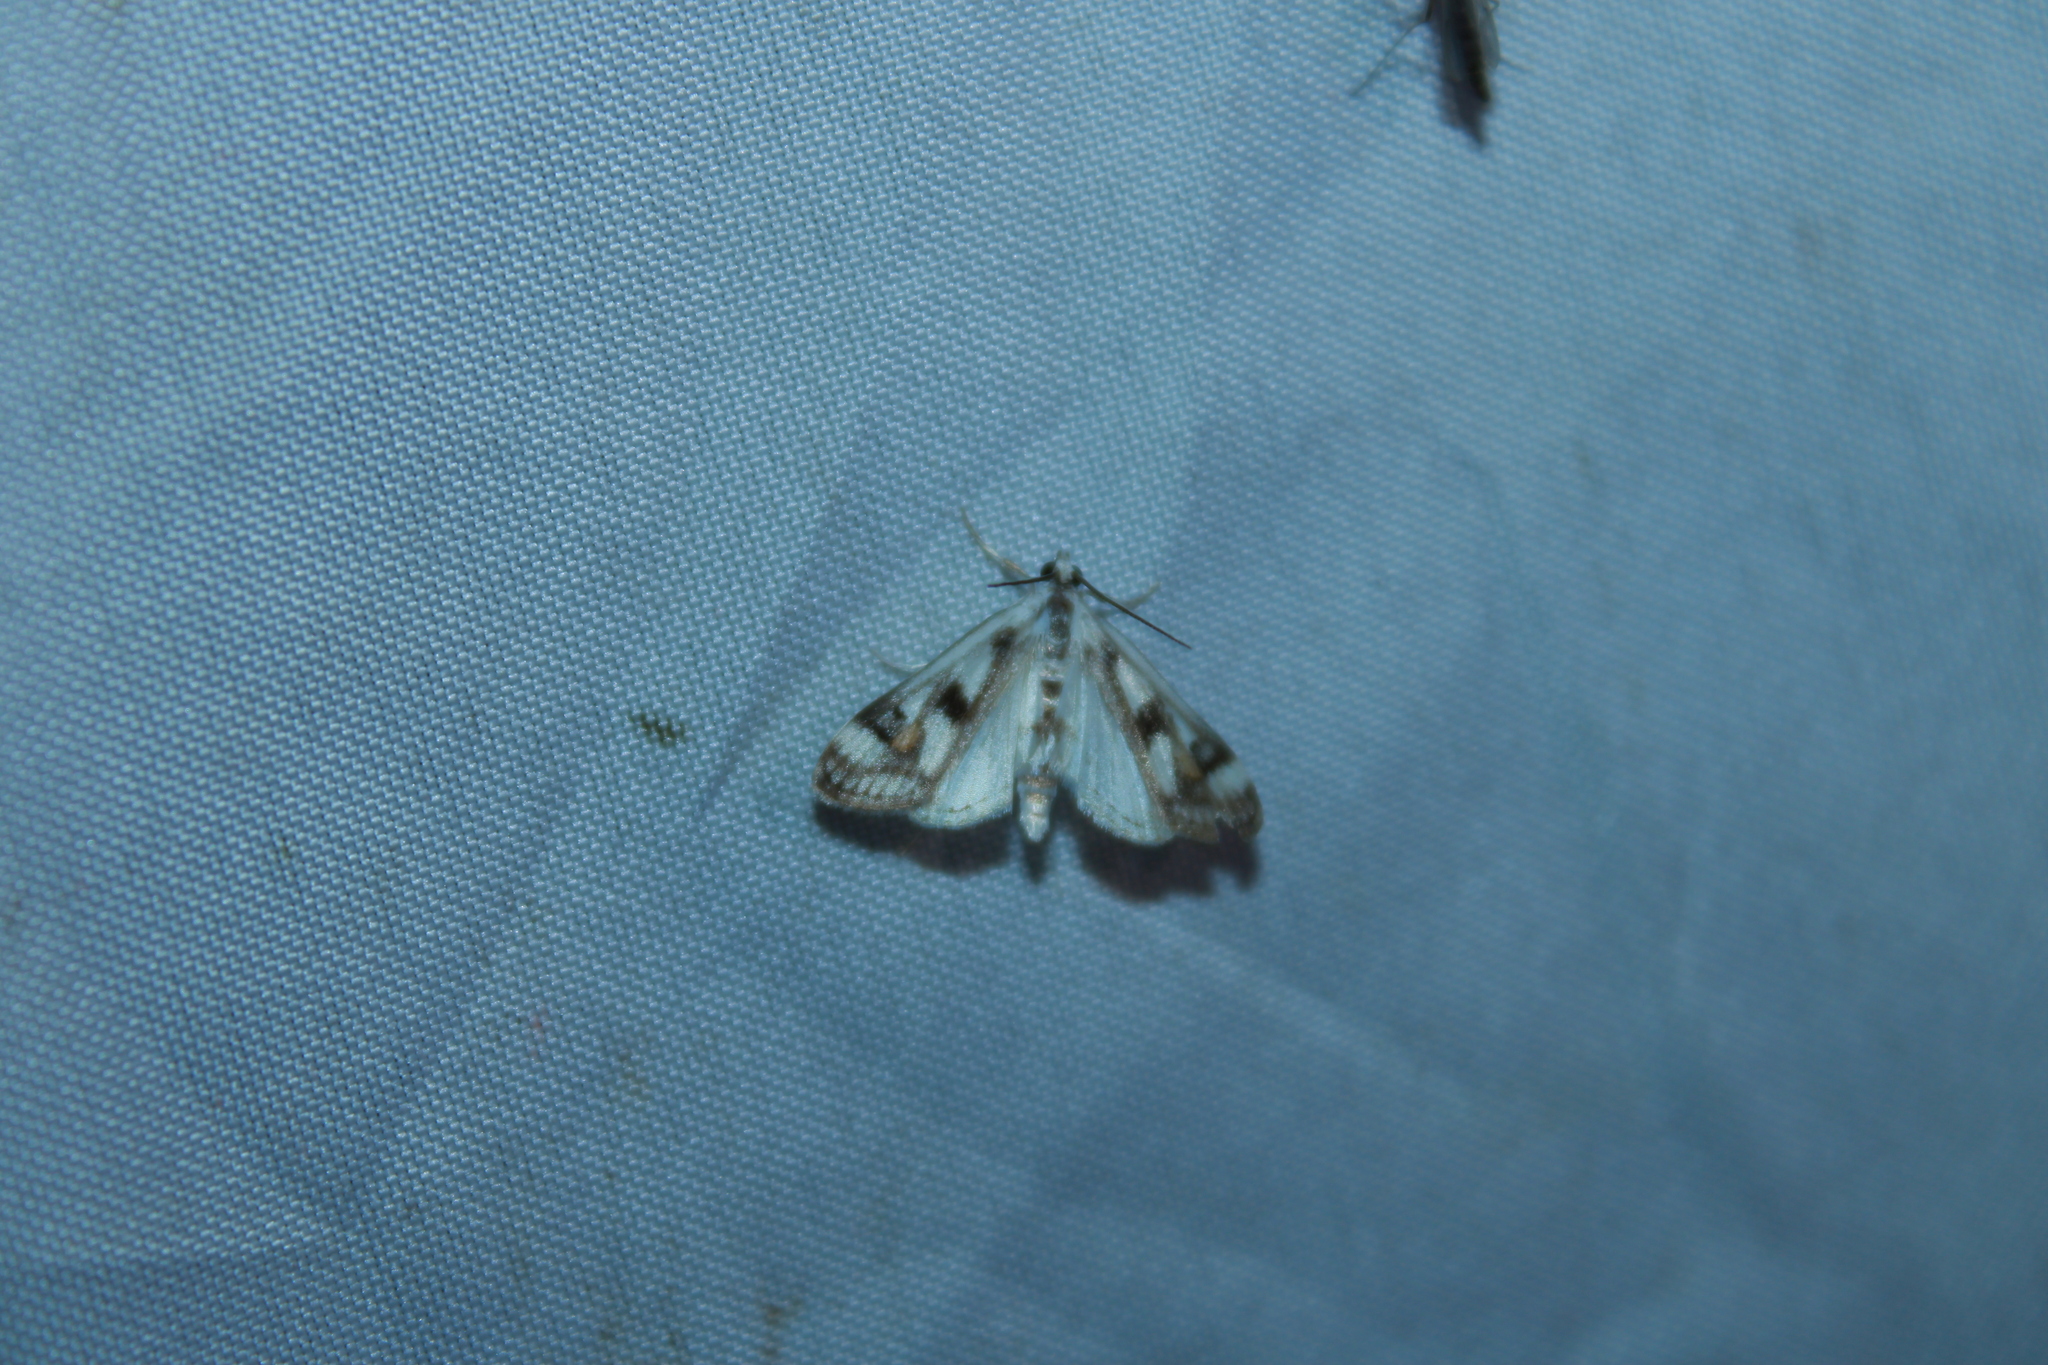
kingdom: Animalia
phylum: Arthropoda
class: Insecta
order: Lepidoptera
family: Crambidae
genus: Parapoynx
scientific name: Parapoynx maculalis
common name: Polymorphic pondweed moth
